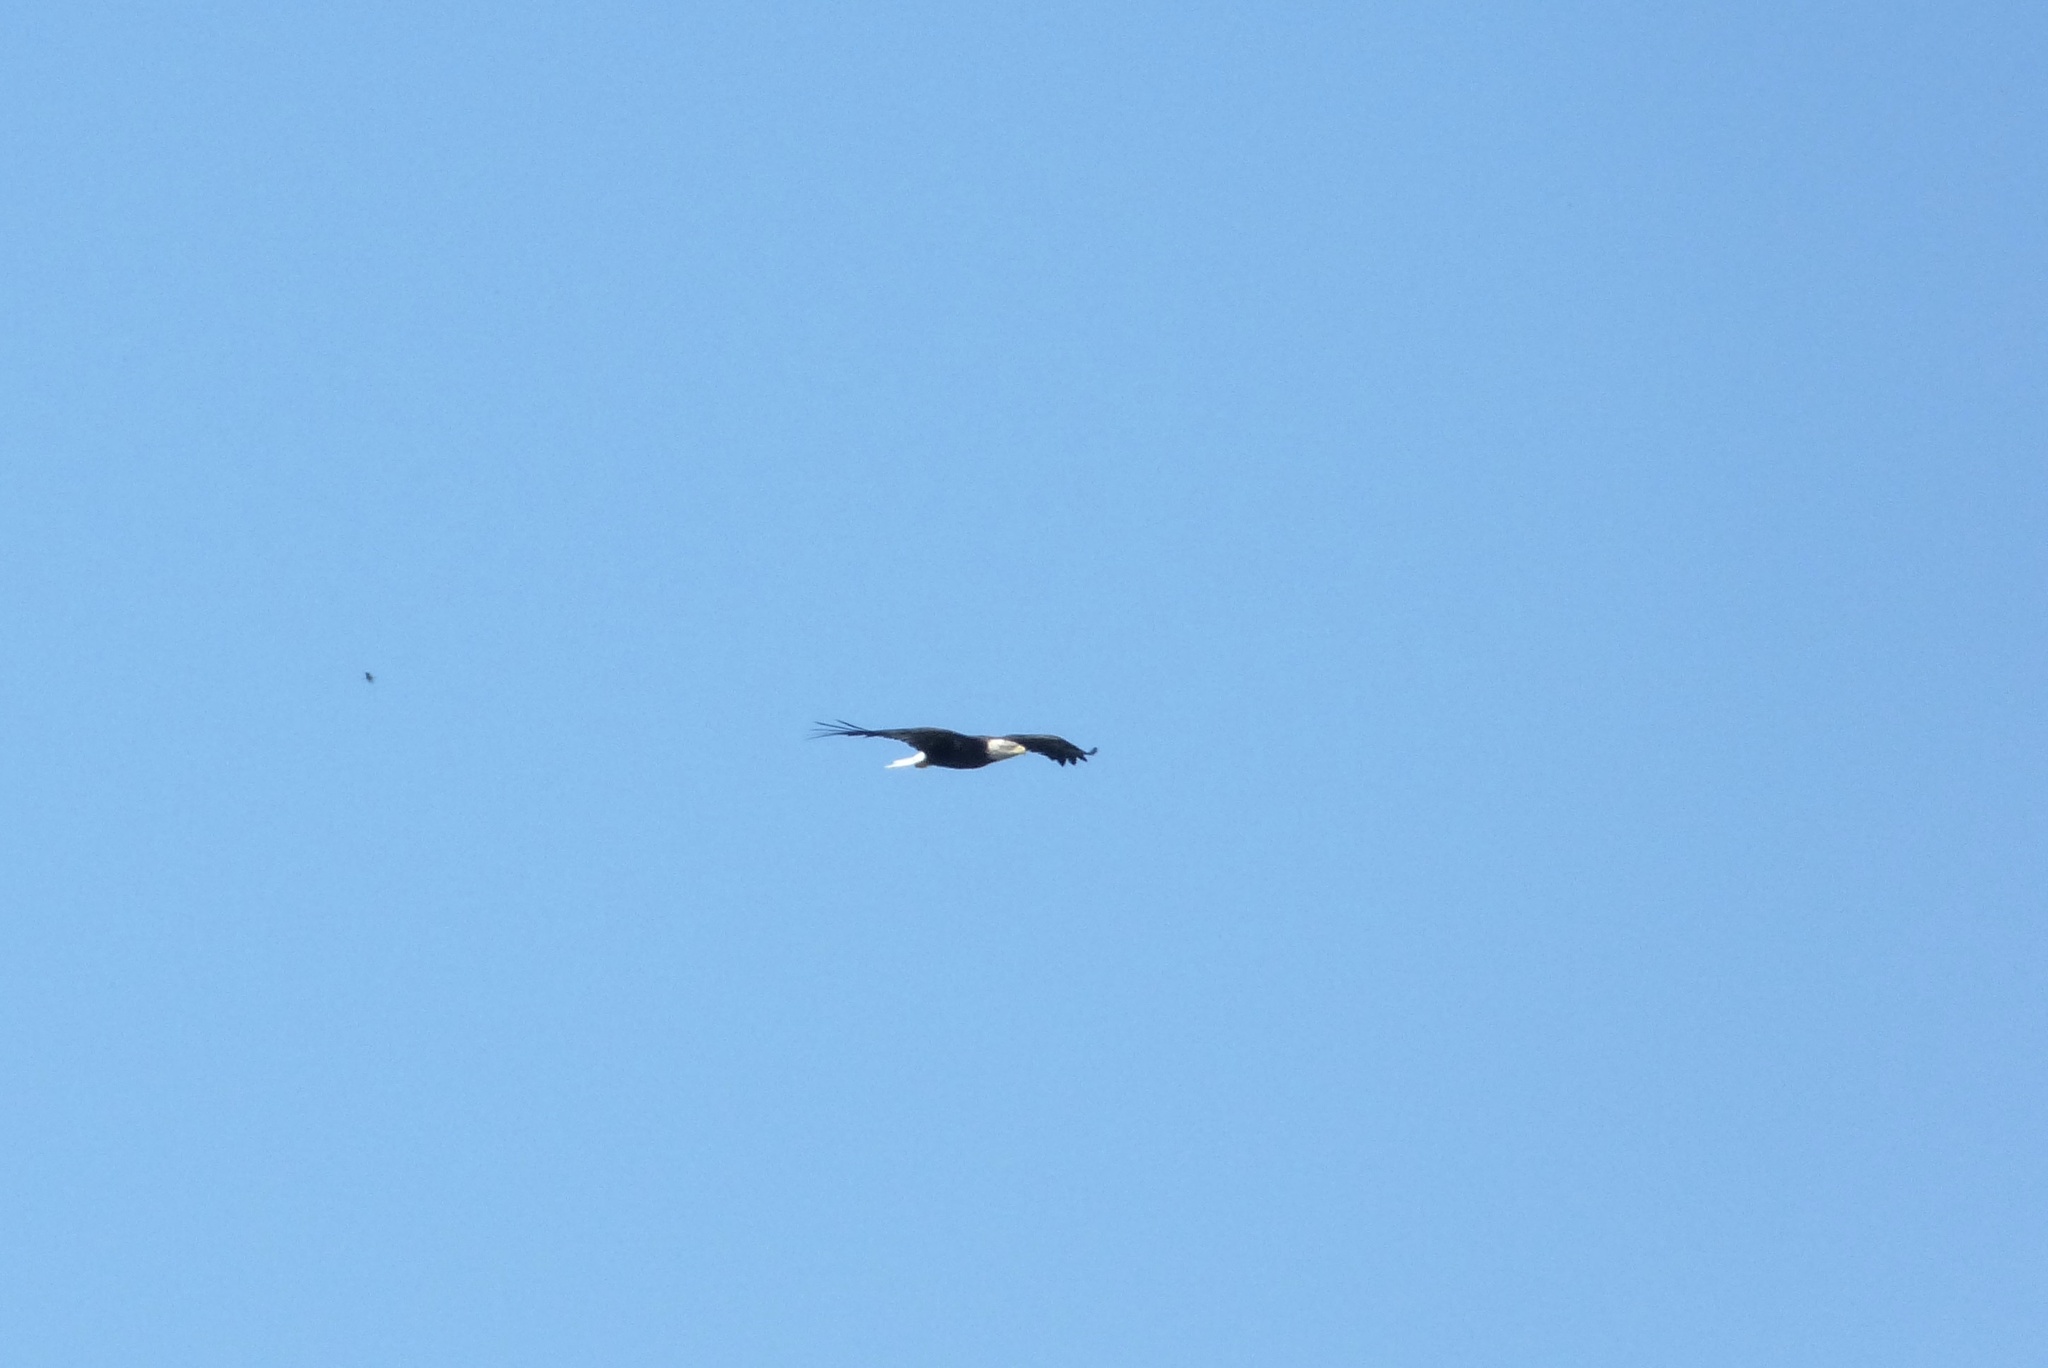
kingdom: Animalia
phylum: Chordata
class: Aves
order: Accipitriformes
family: Accipitridae
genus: Haliaeetus
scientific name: Haliaeetus leucocephalus
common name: Bald eagle
